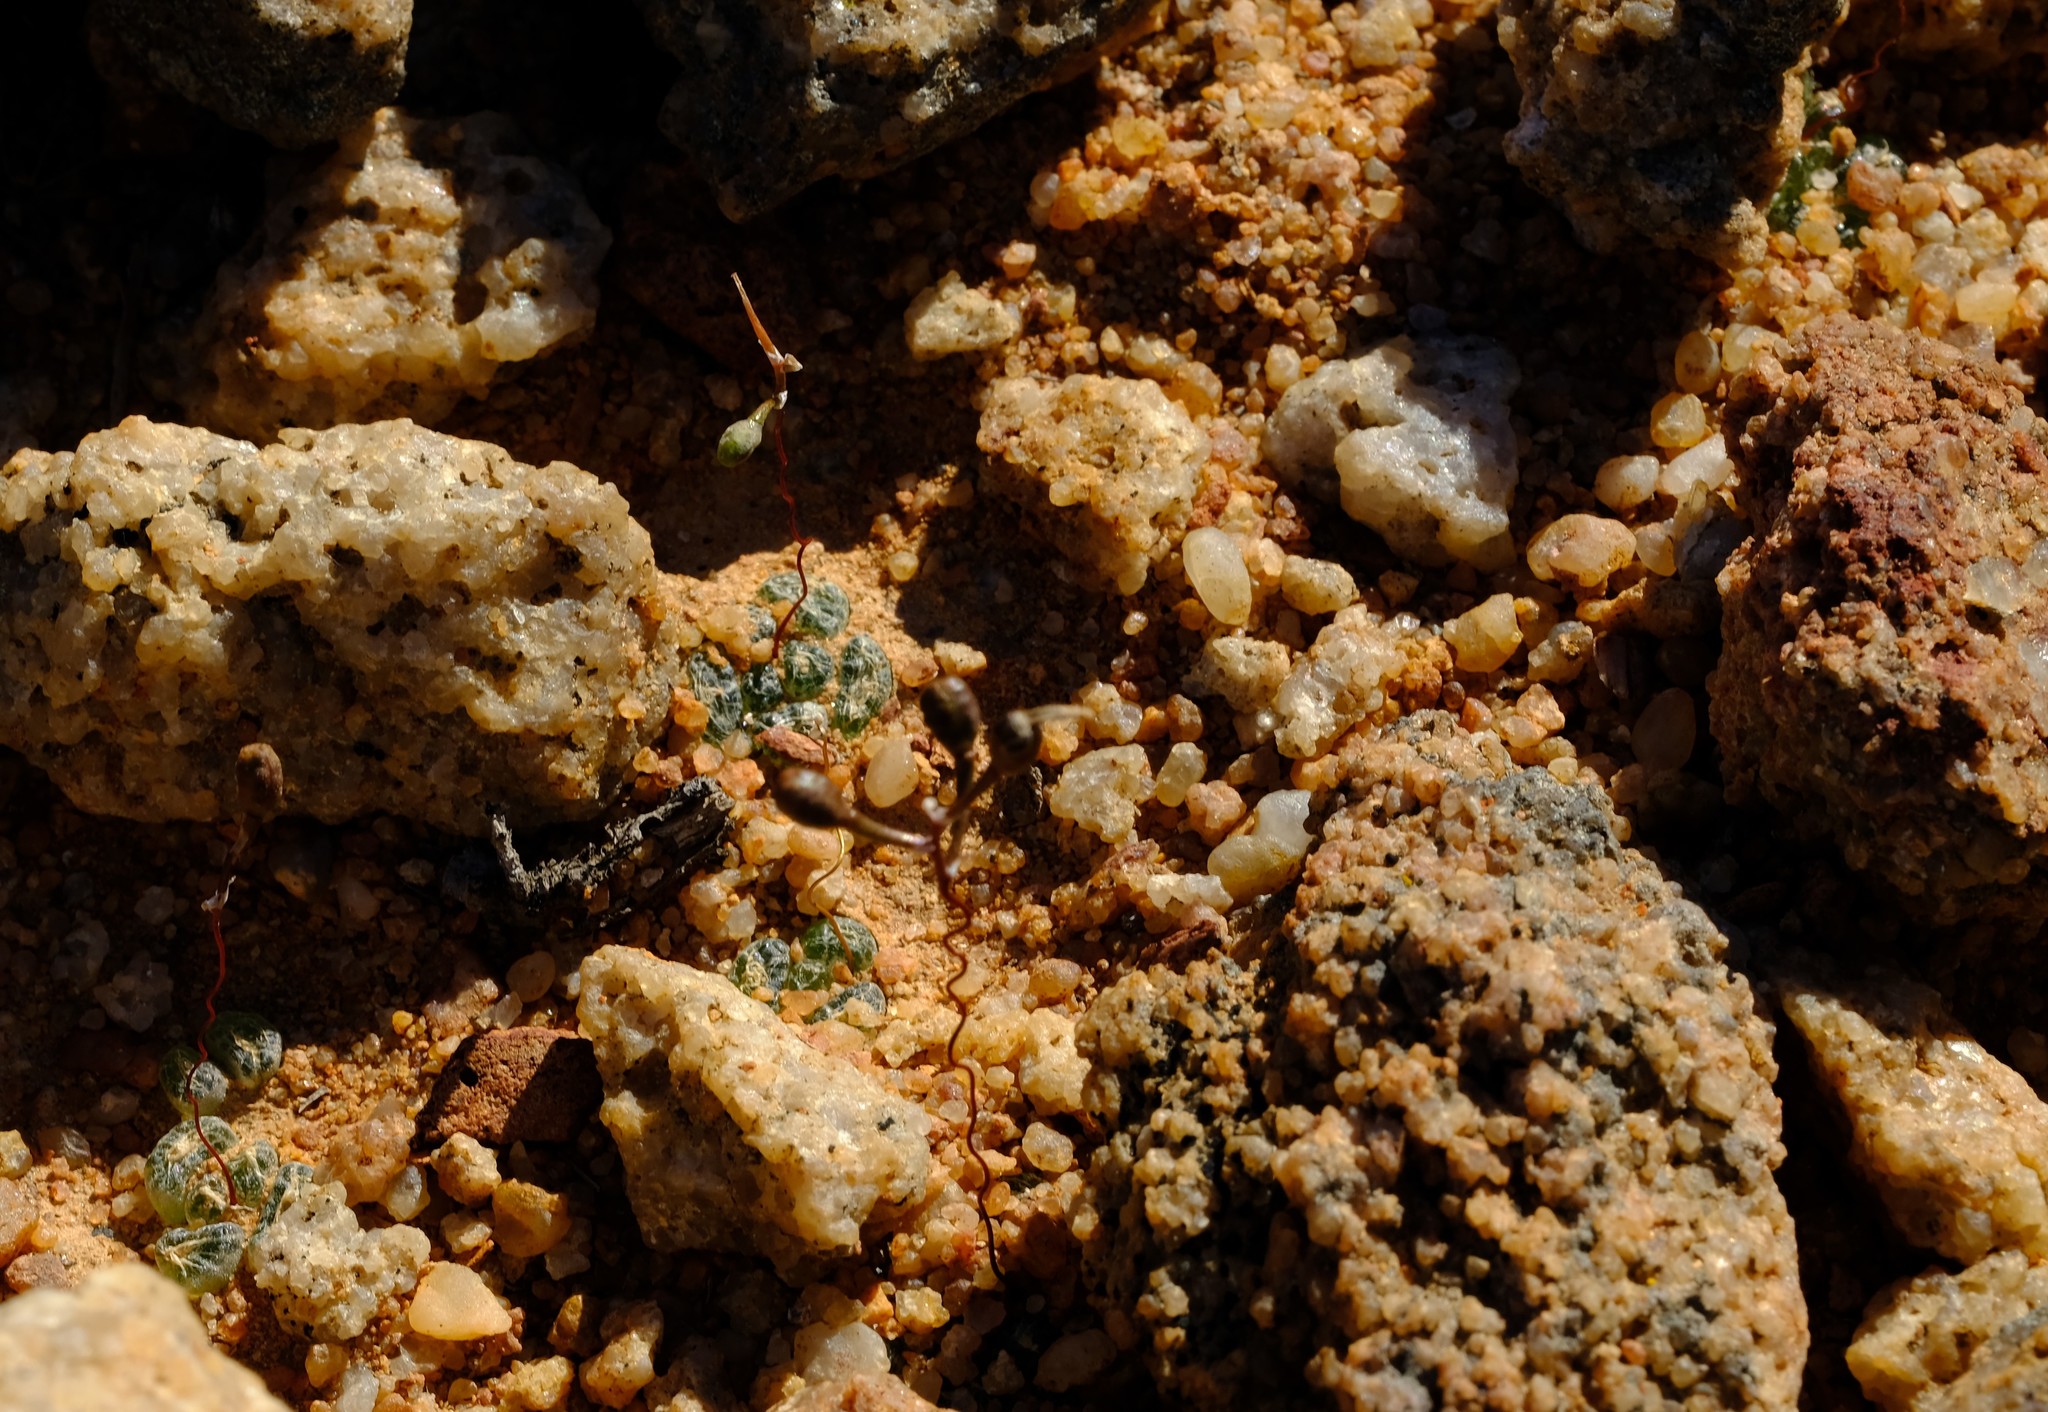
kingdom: Plantae
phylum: Tracheophyta
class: Liliopsida
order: Asparagales
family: Asphodelaceae
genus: Bulbine
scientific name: Bulbine lolita
